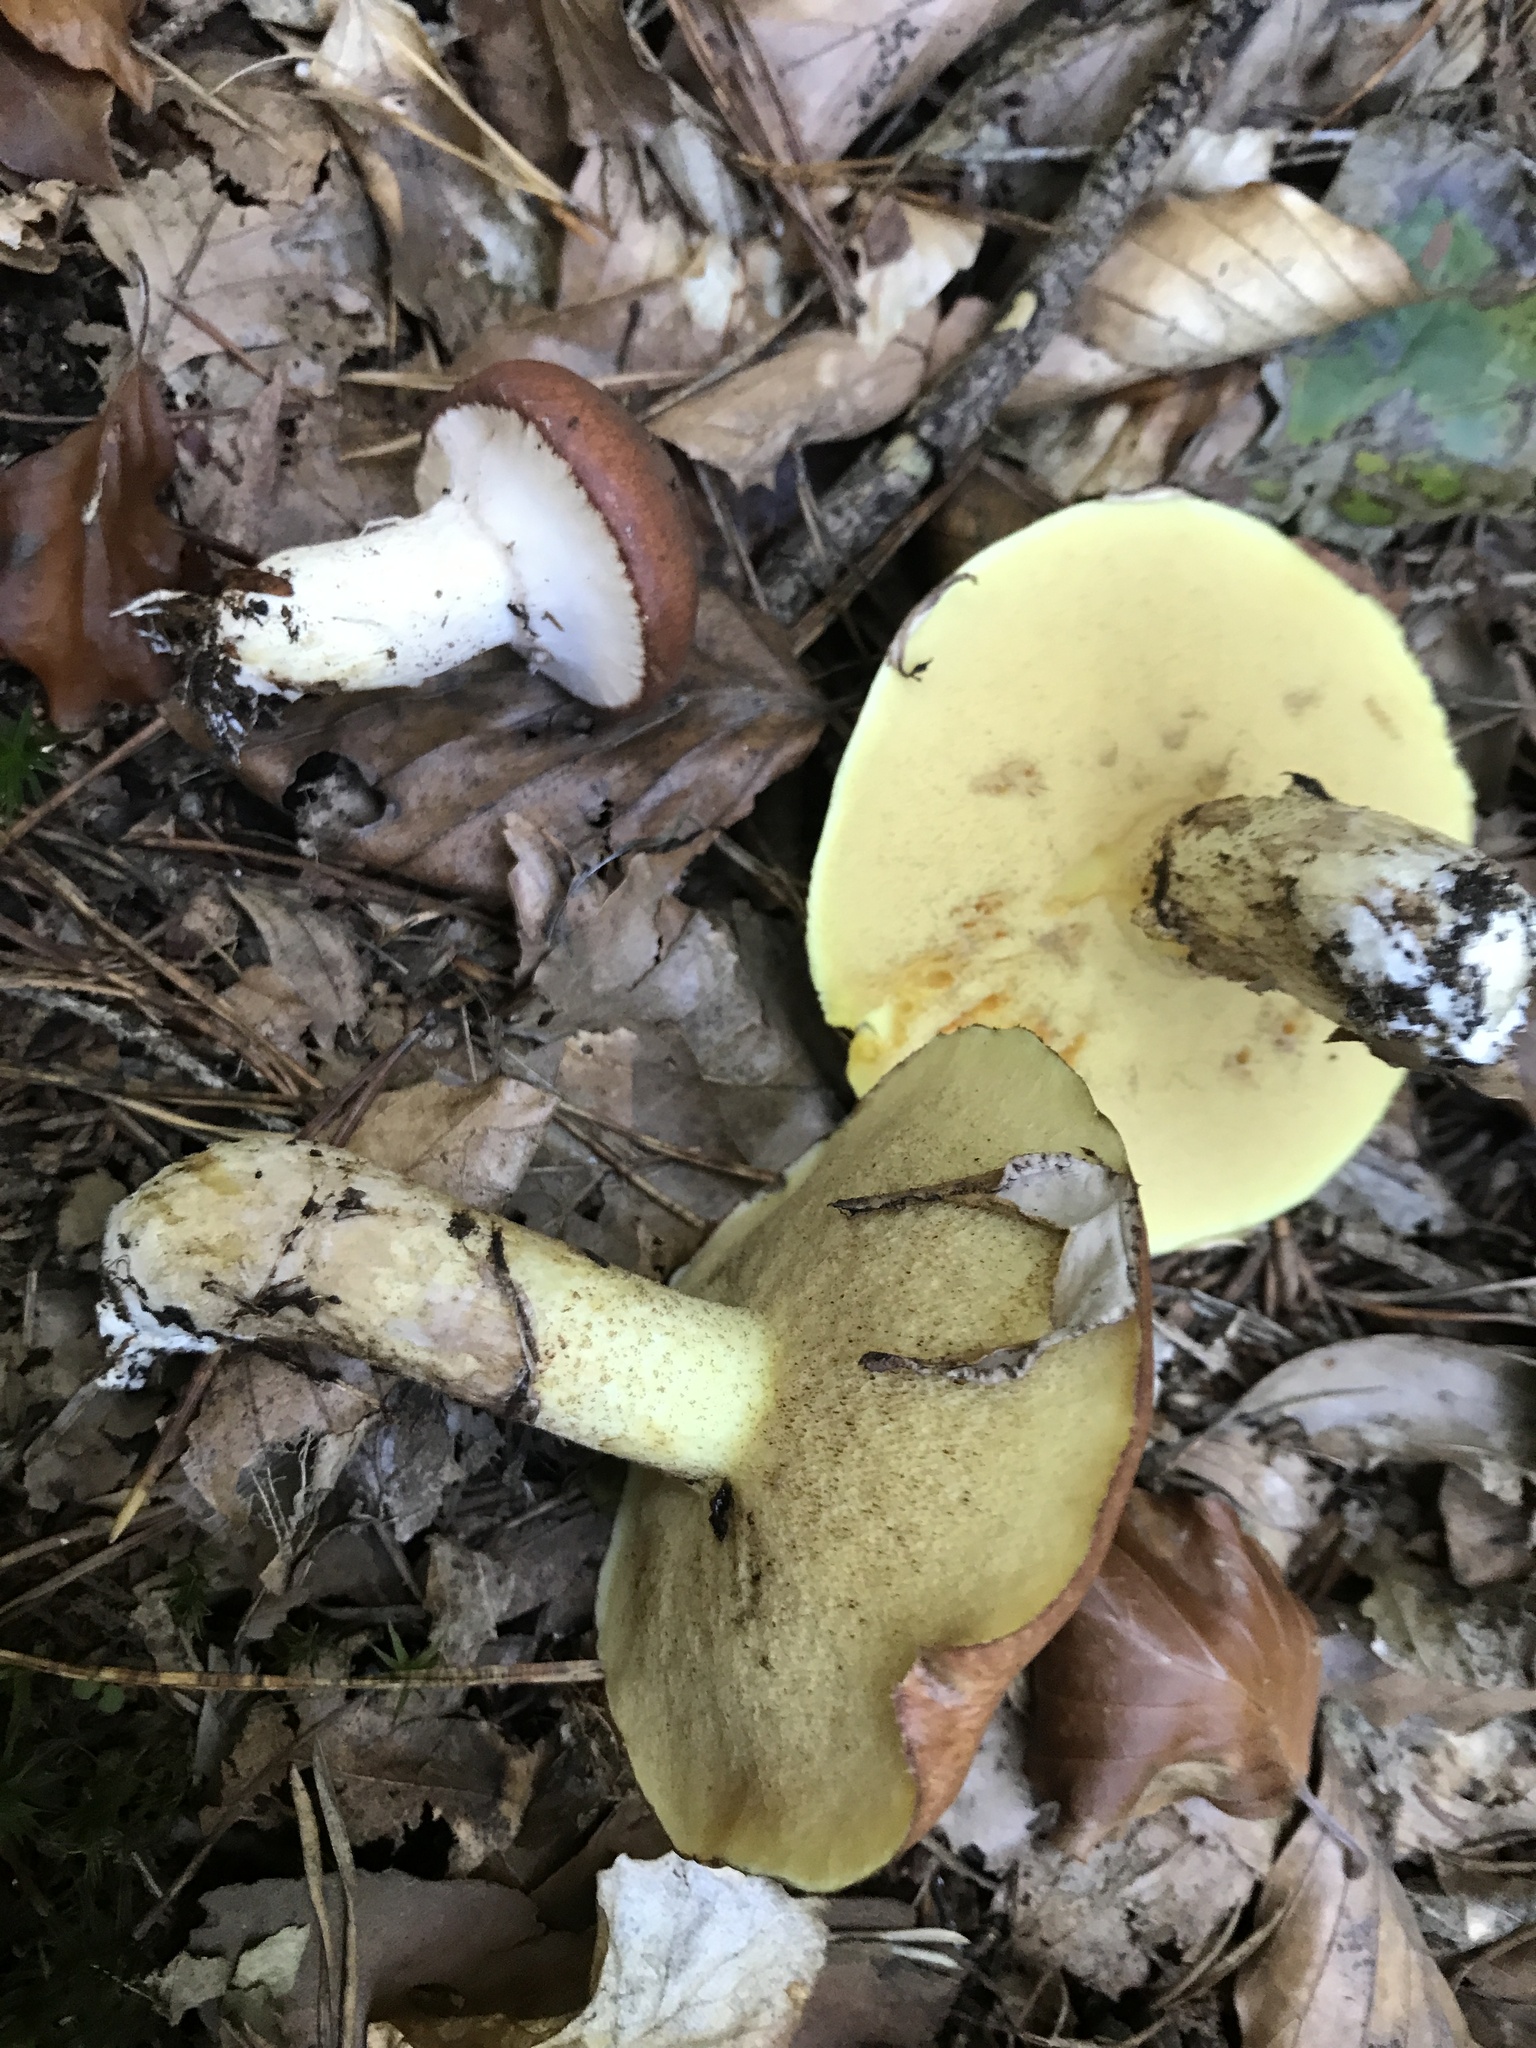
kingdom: Fungi
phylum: Basidiomycota
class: Agaricomycetes
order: Boletales
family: Suillaceae
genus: Suillus
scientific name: Suillus luteus
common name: Slippery jack
